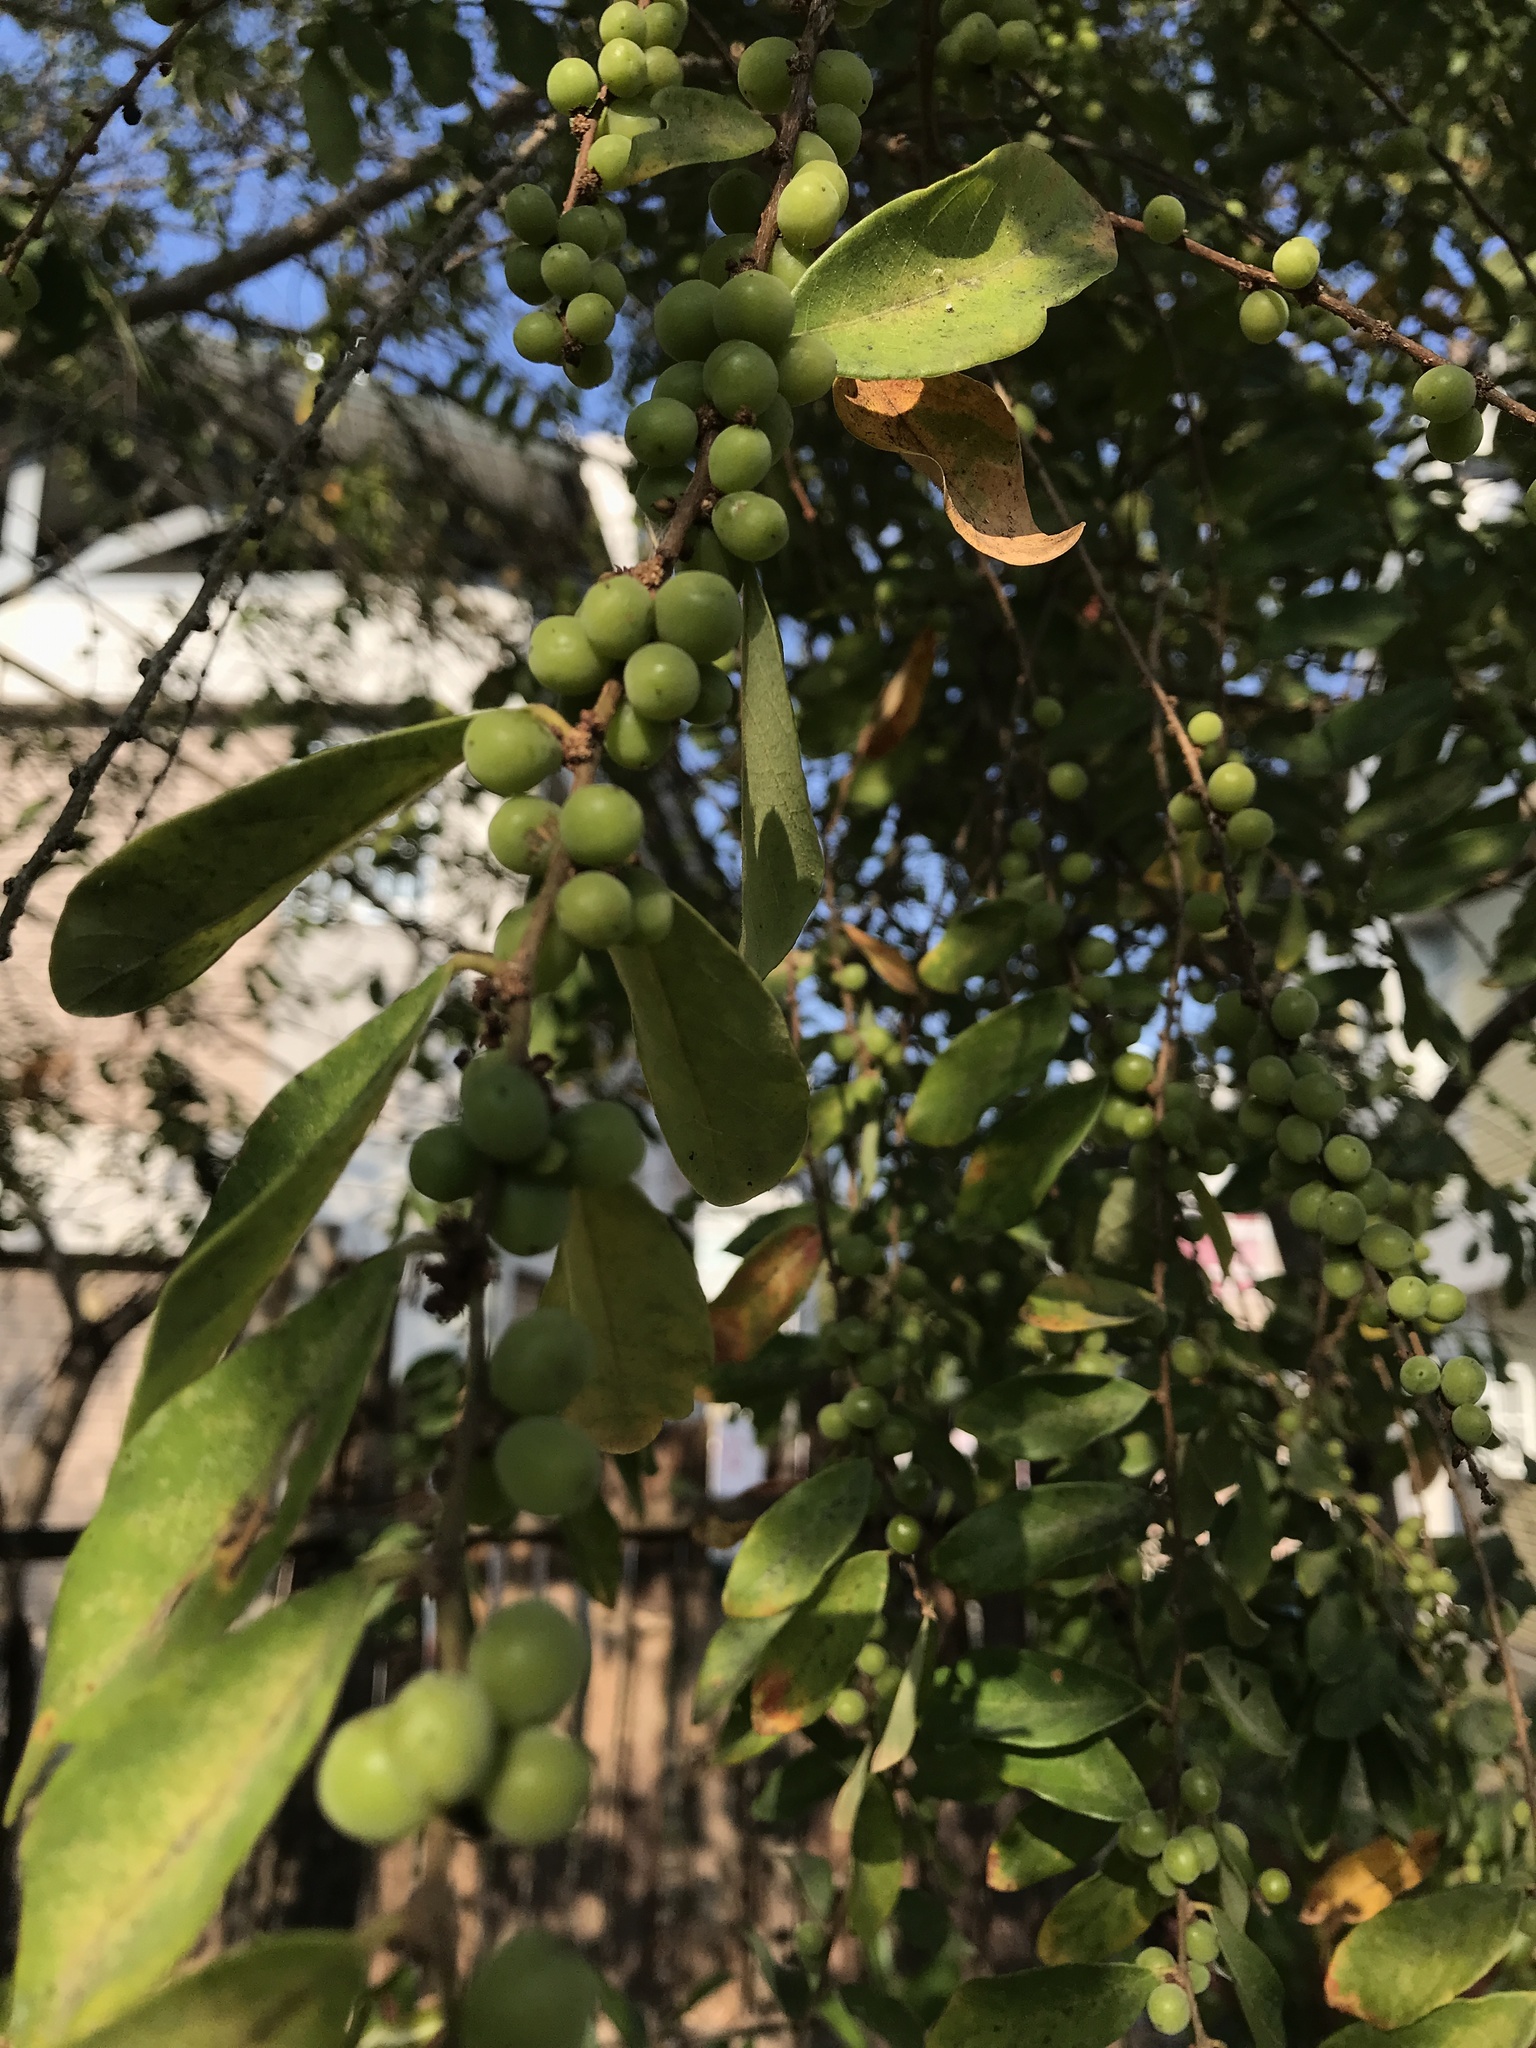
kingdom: Plantae
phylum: Tracheophyta
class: Magnoliopsida
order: Malpighiales
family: Phyllanthaceae
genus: Bridelia
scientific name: Bridelia tomentosa
